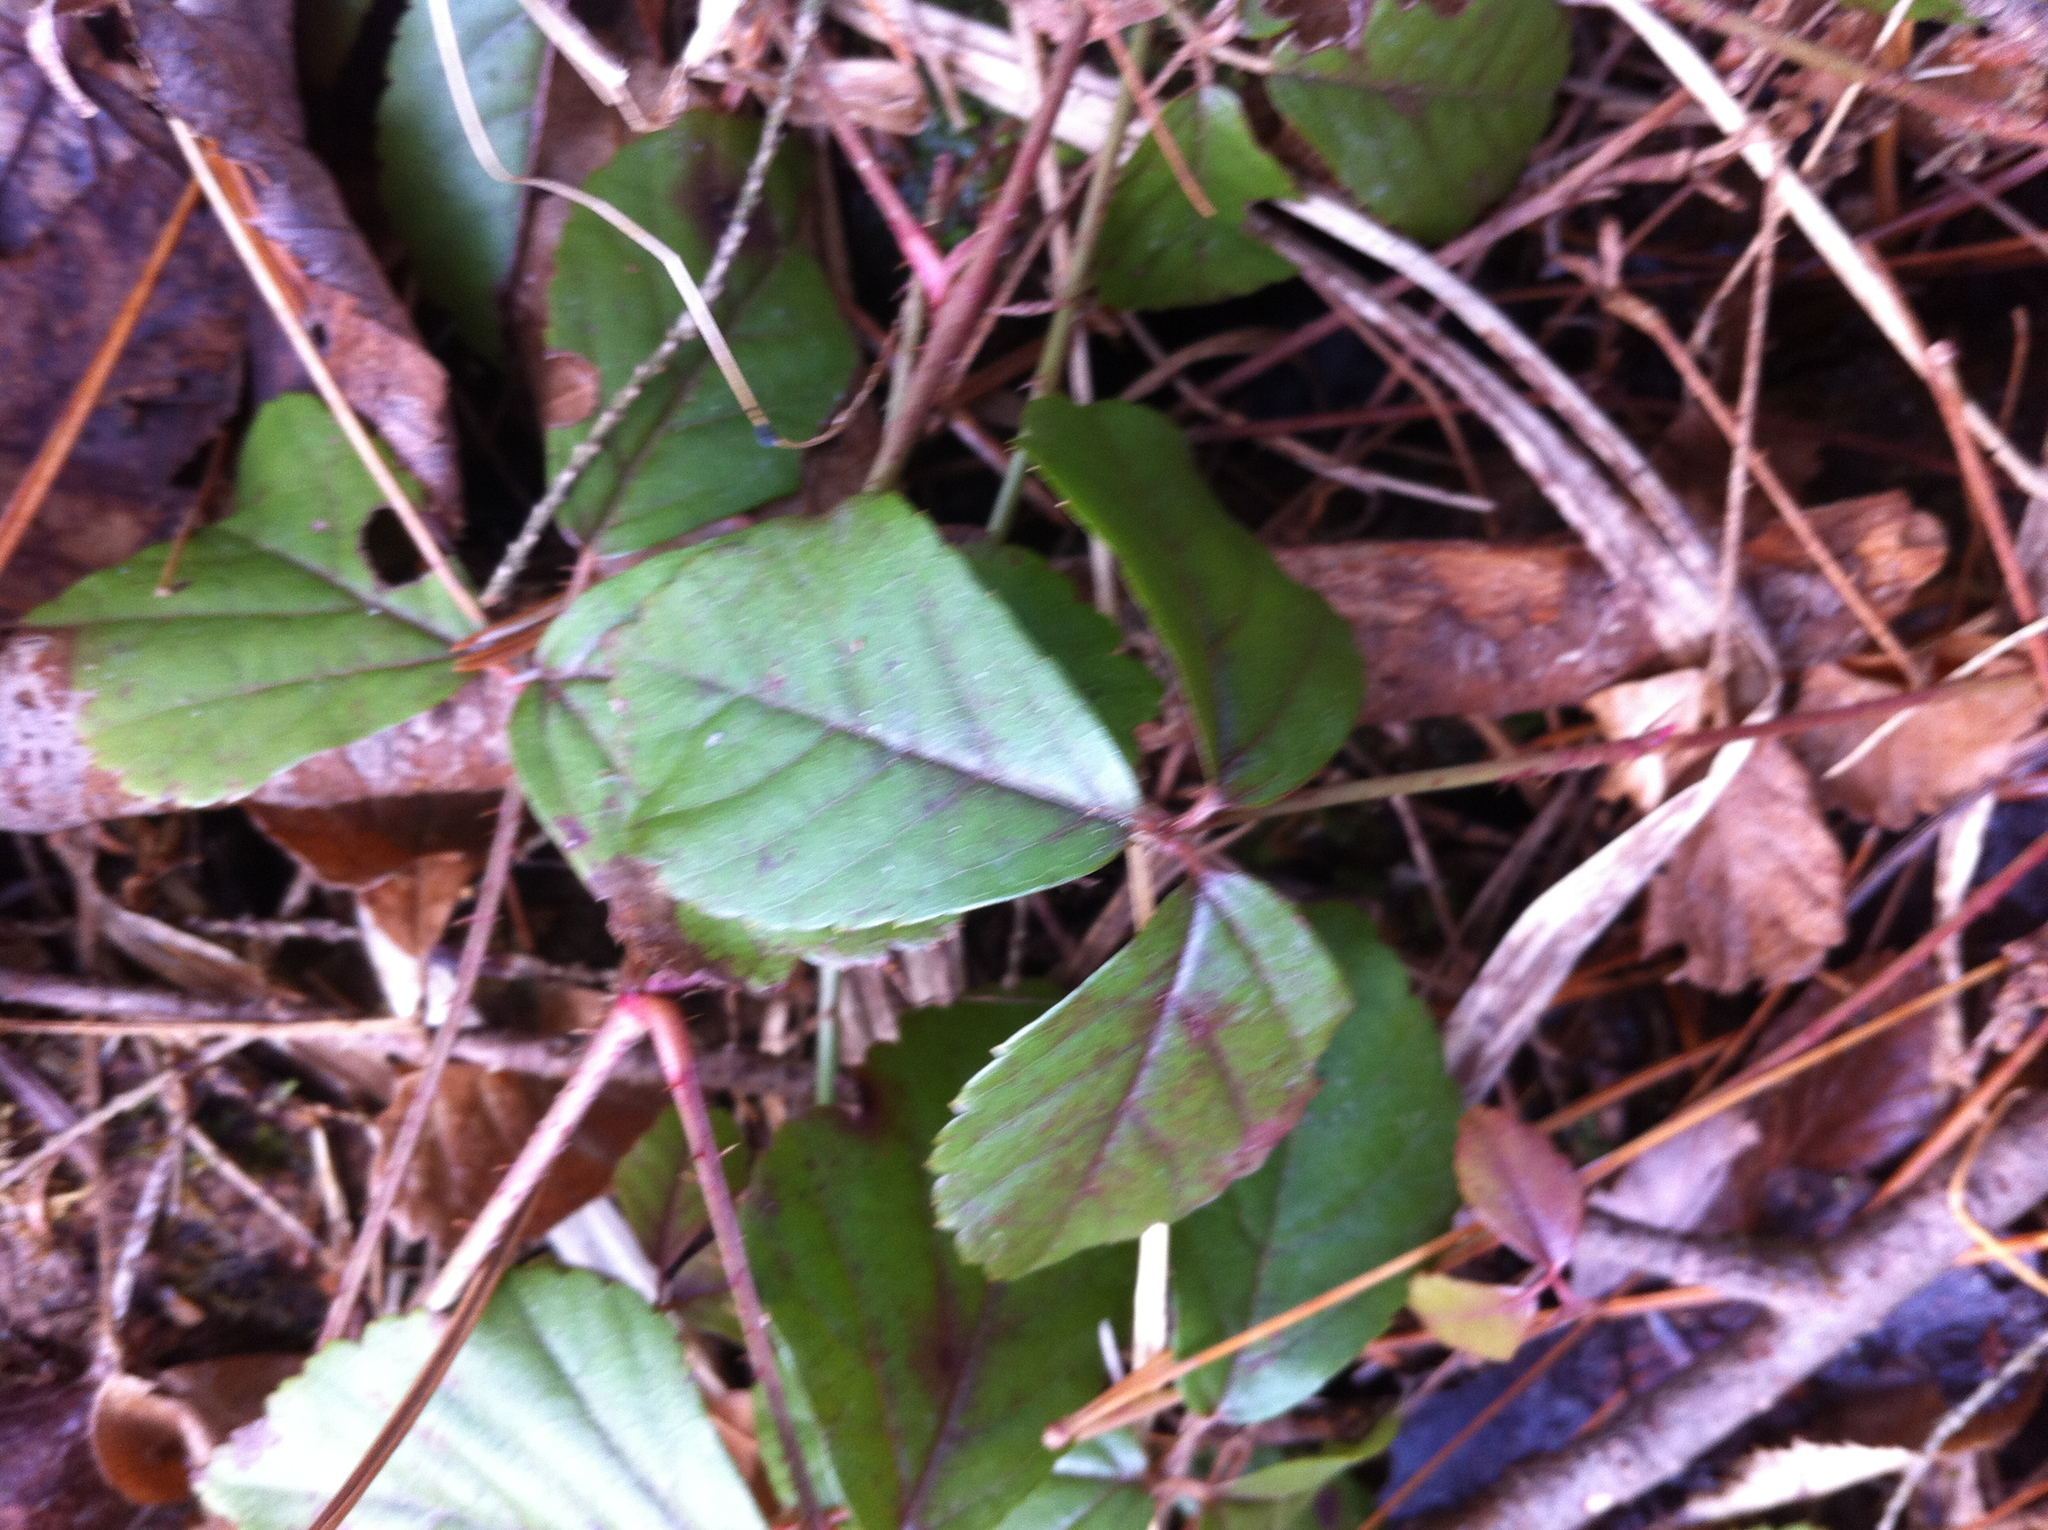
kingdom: Plantae
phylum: Tracheophyta
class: Magnoliopsida
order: Rosales
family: Rosaceae
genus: Rubus
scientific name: Rubus hispidus
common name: Running blackberry
